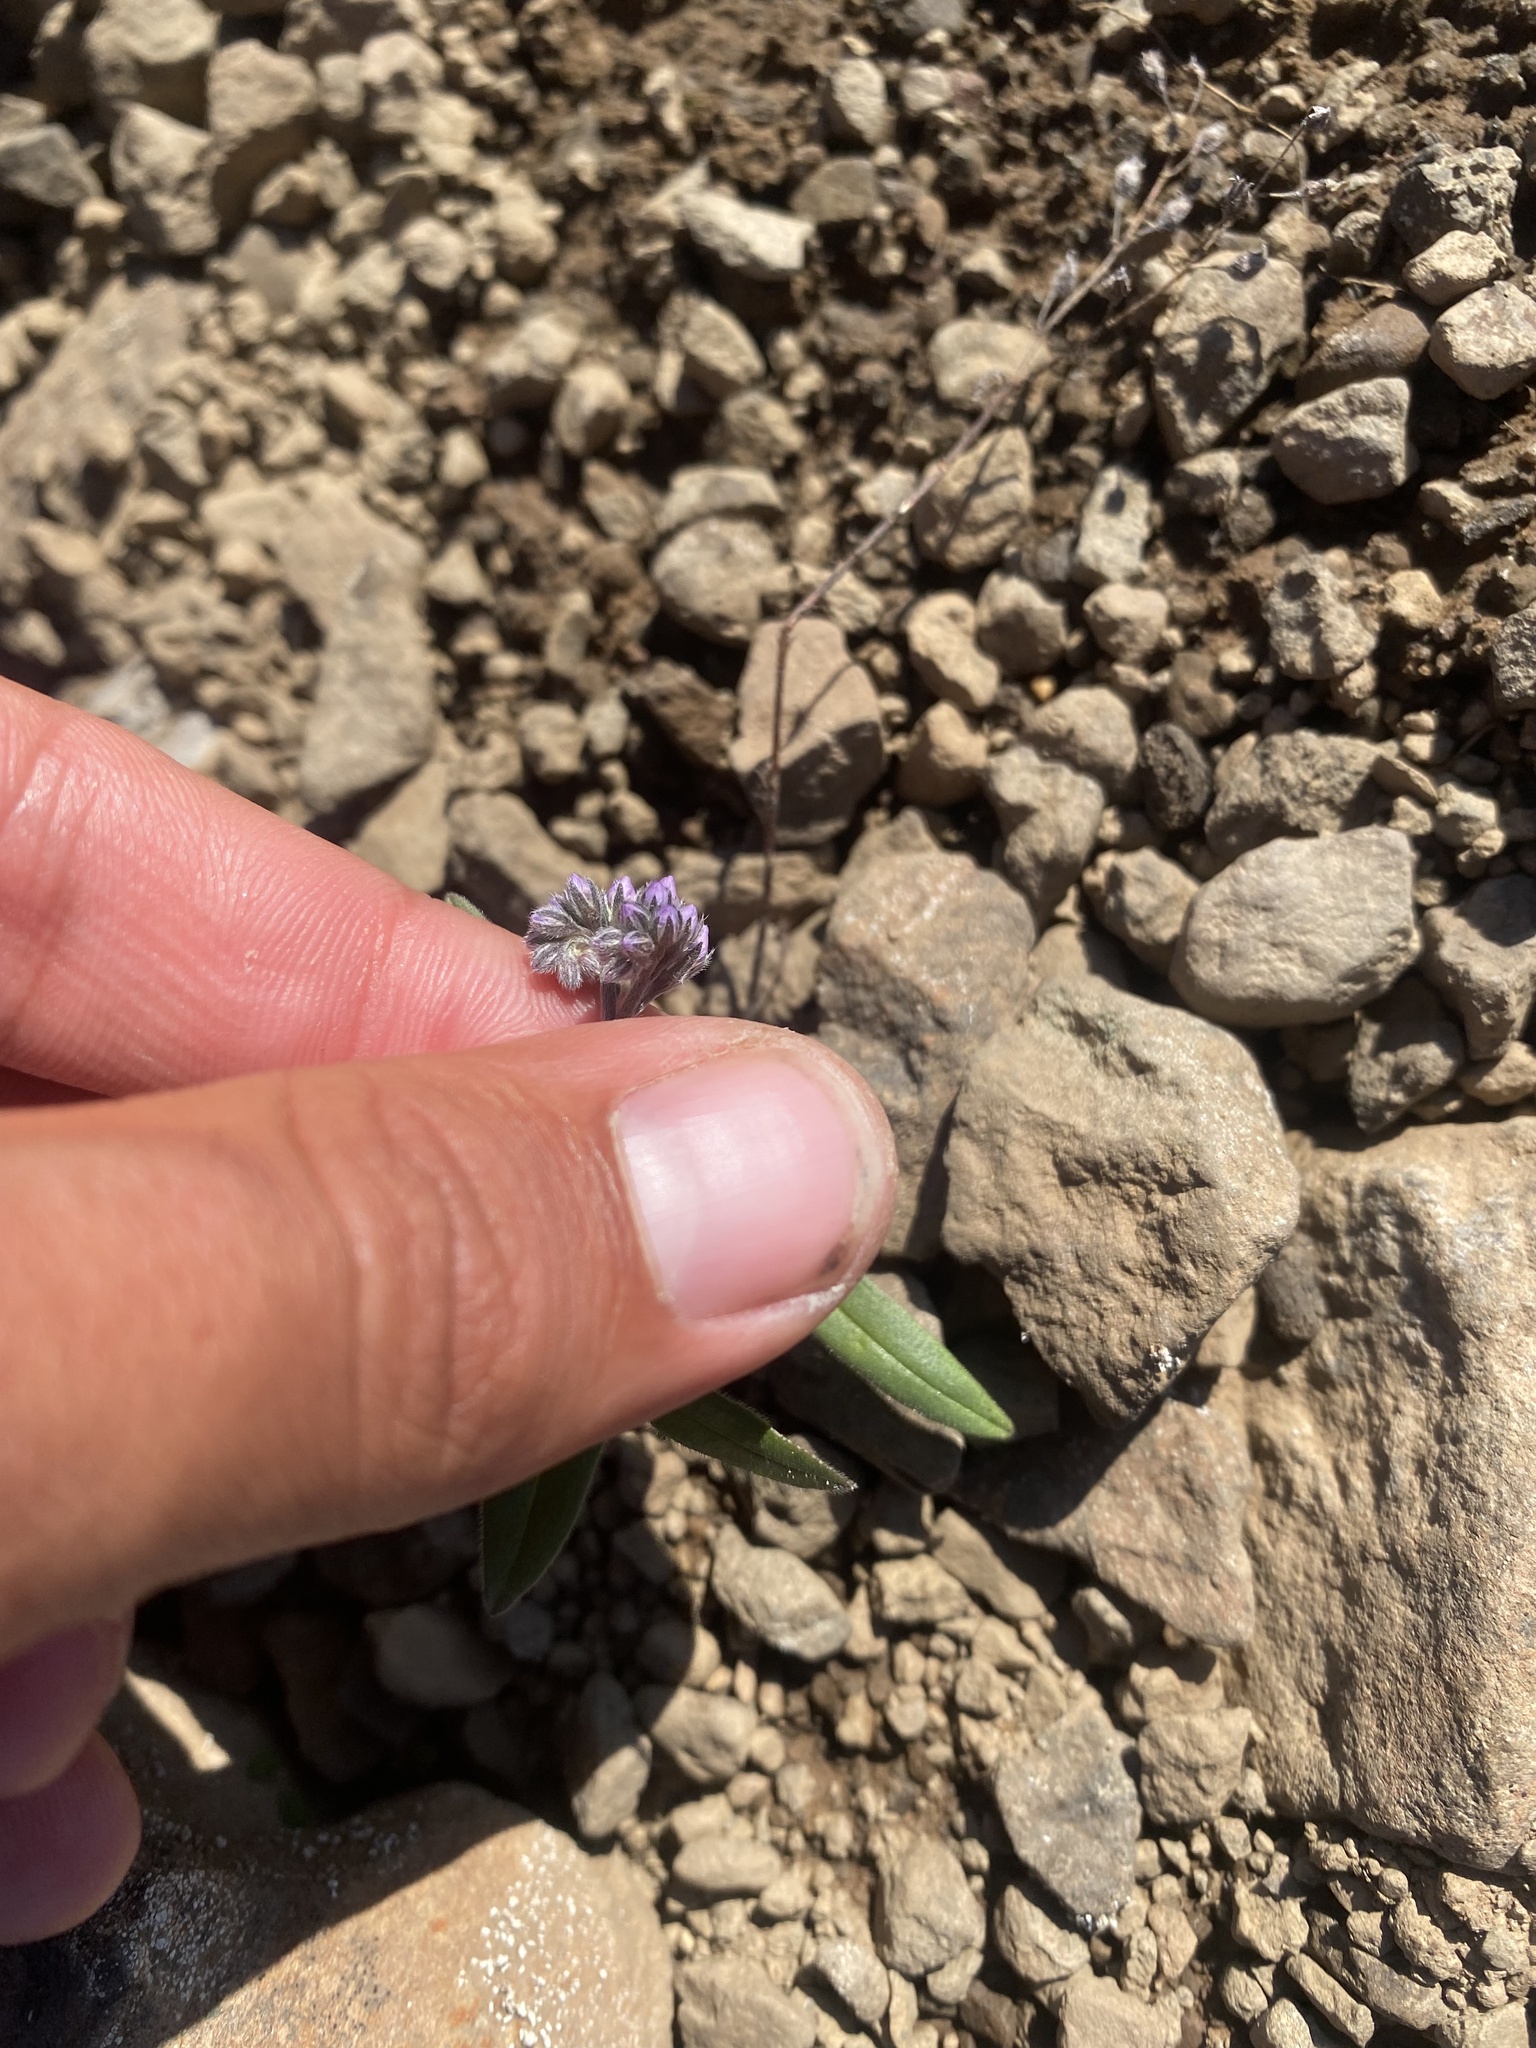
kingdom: Plantae
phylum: Tracheophyta
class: Magnoliopsida
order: Boraginales
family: Boraginaceae
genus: Myosotis
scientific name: Myosotis asiatica
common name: Asian forget-me-not
